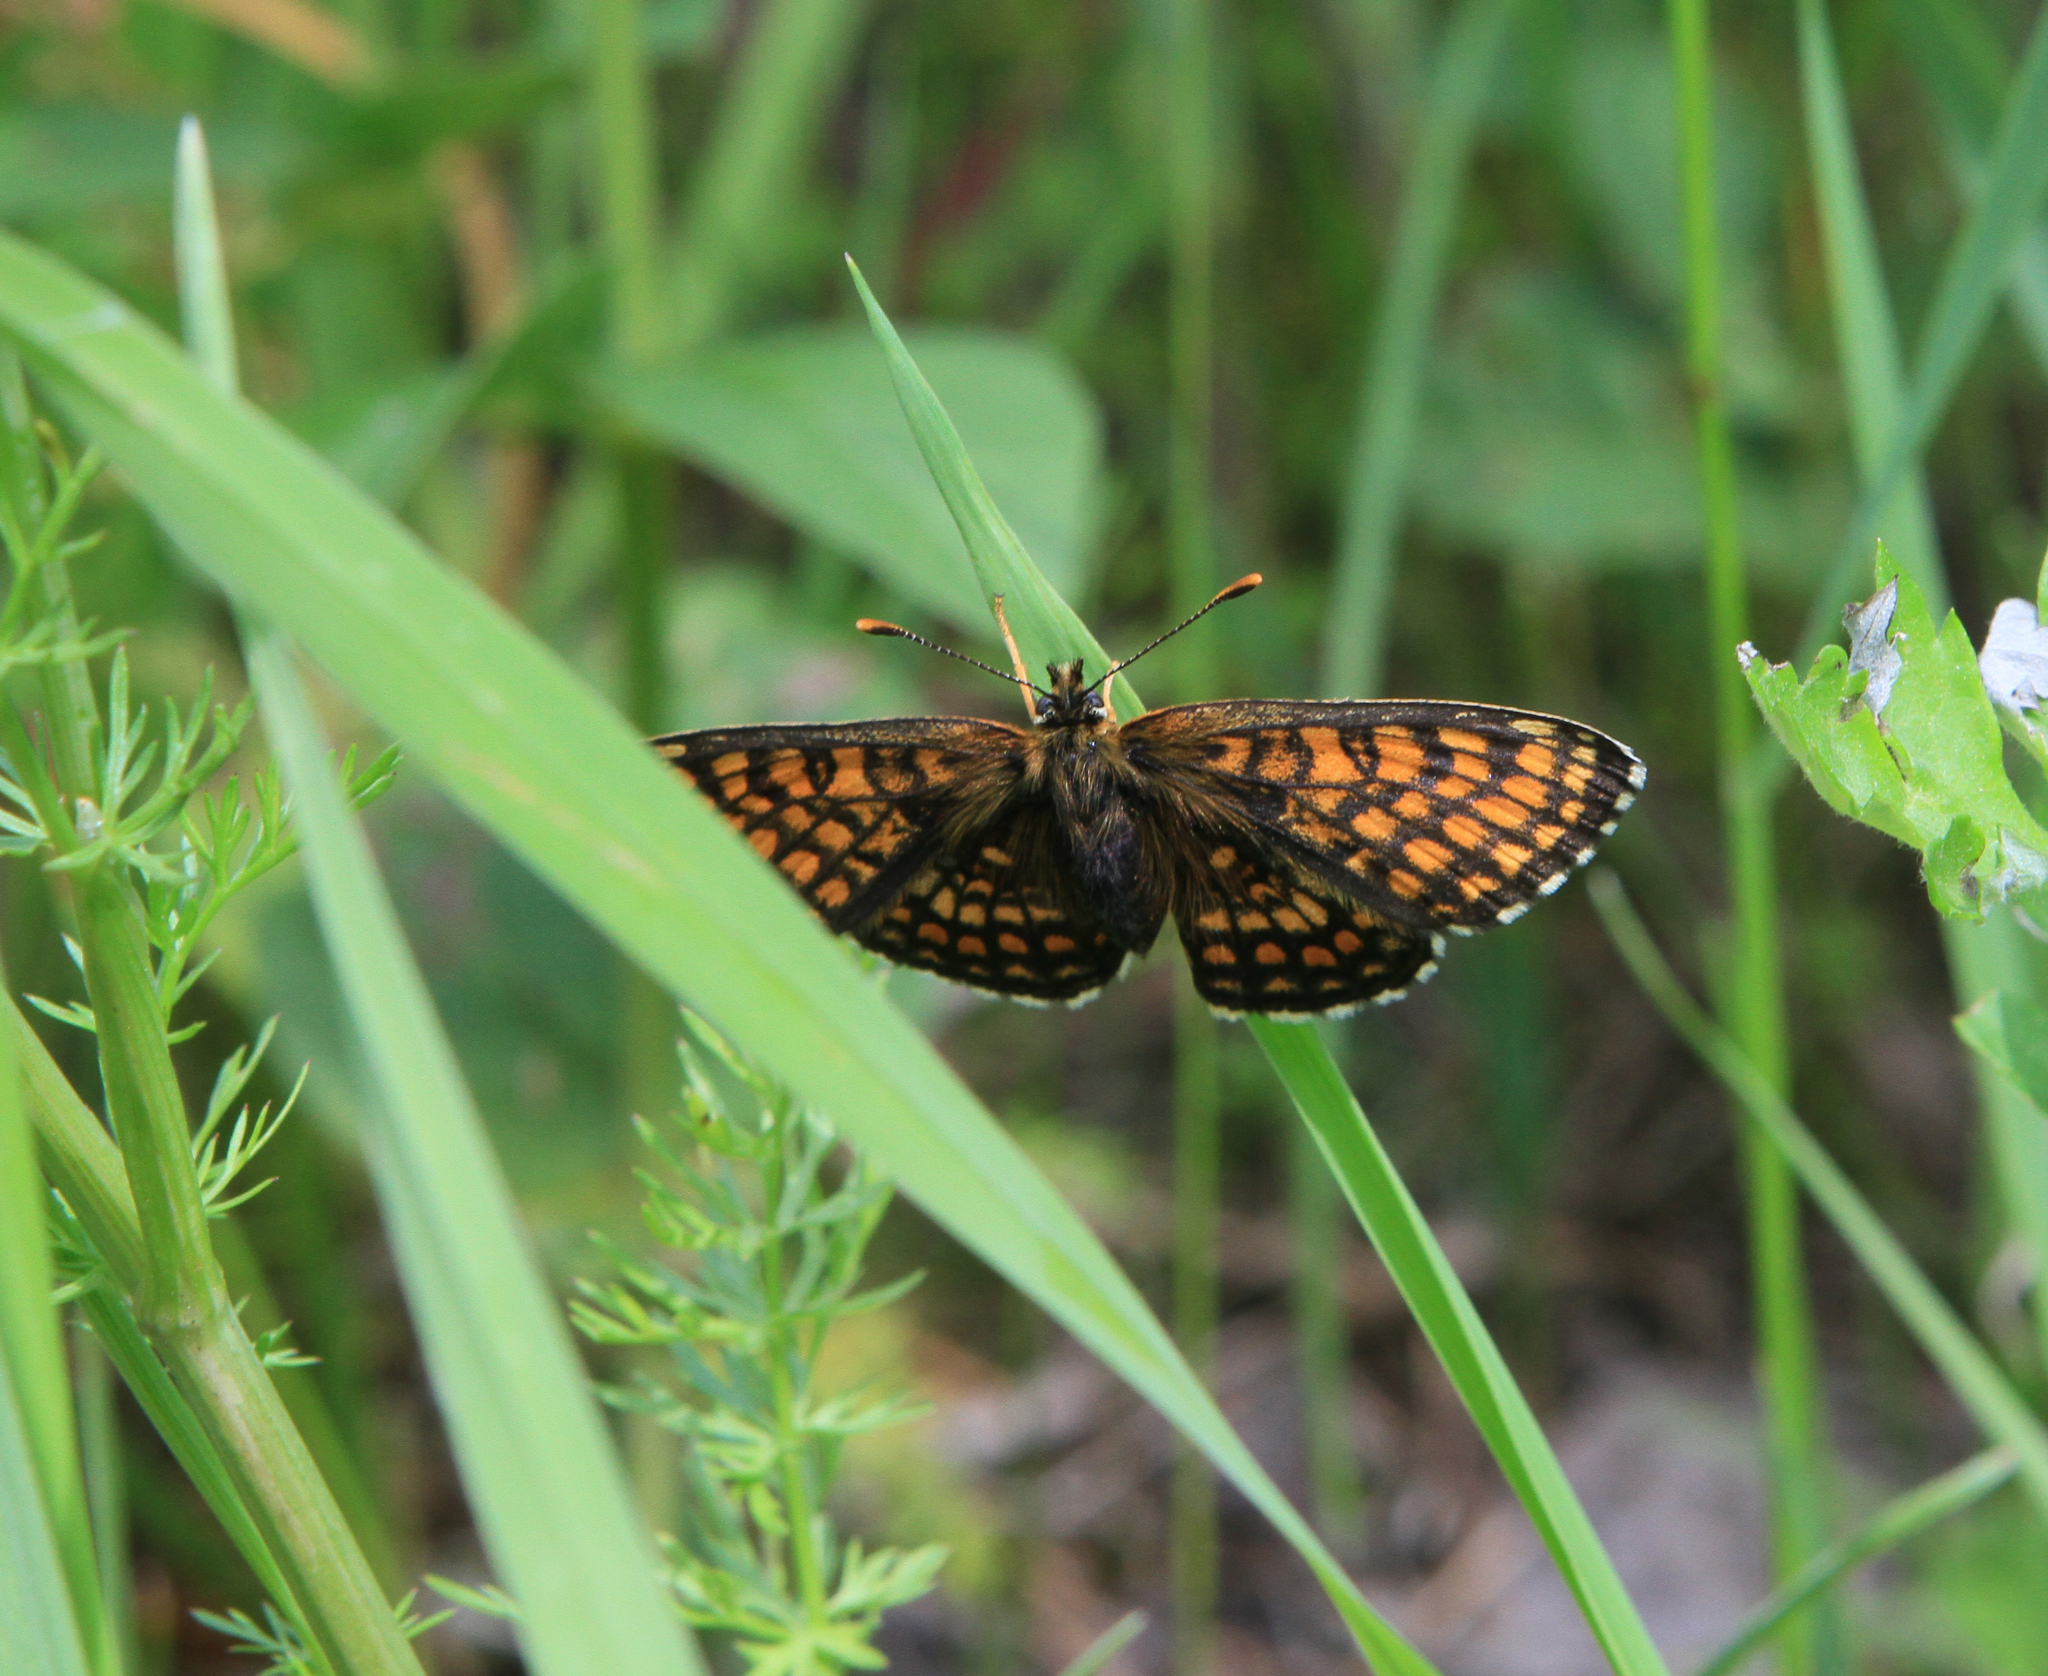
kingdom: Animalia
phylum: Arthropoda
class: Insecta
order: Lepidoptera
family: Nymphalidae
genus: Melitaea
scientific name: Melitaea
